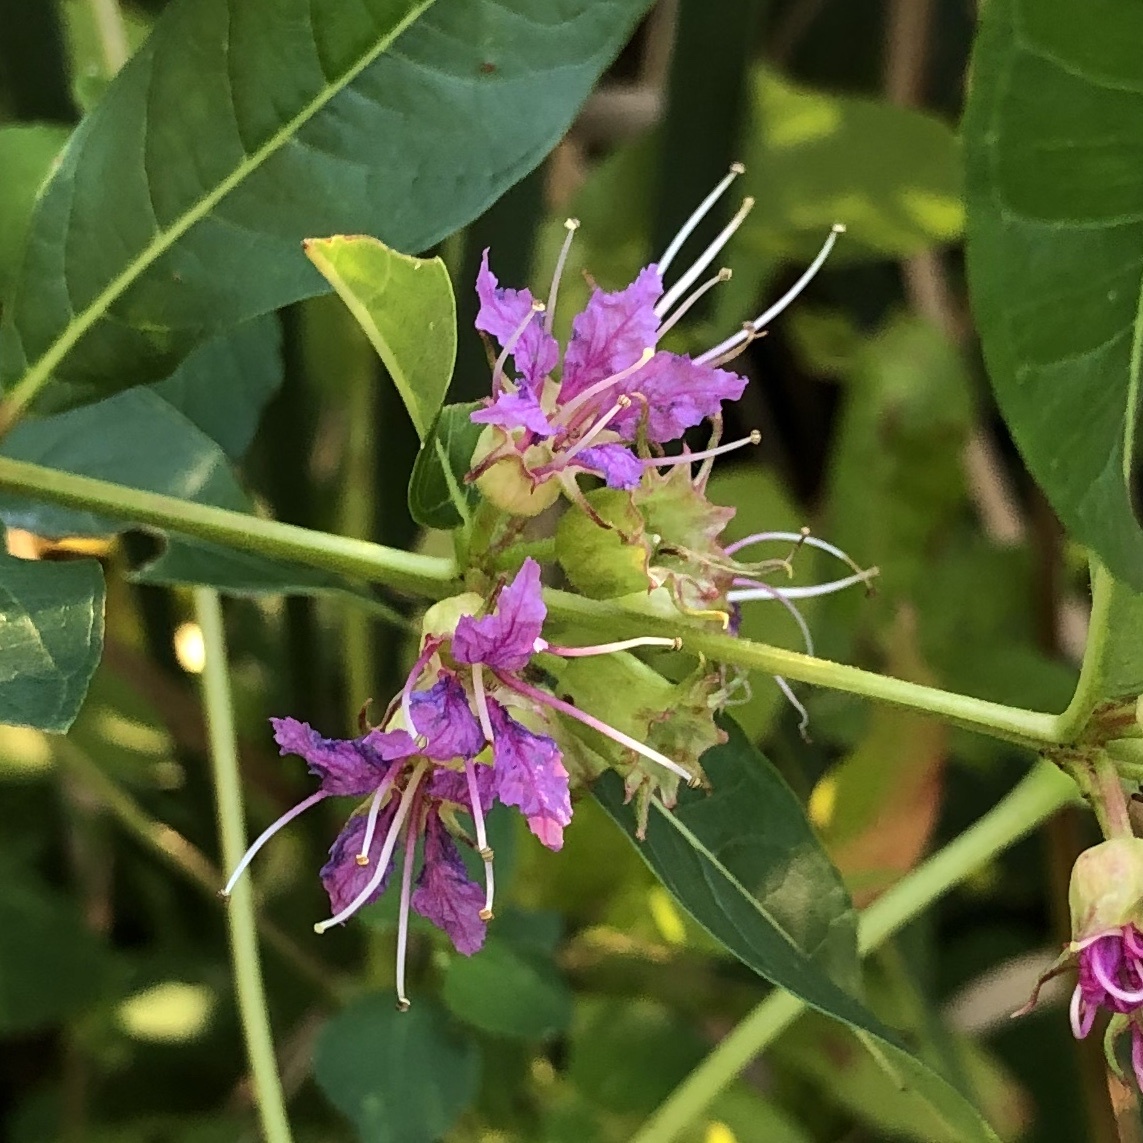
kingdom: Plantae
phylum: Tracheophyta
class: Magnoliopsida
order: Myrtales
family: Lythraceae
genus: Decodon
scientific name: Decodon verticillatus
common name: Hairy swamp loosestrife
